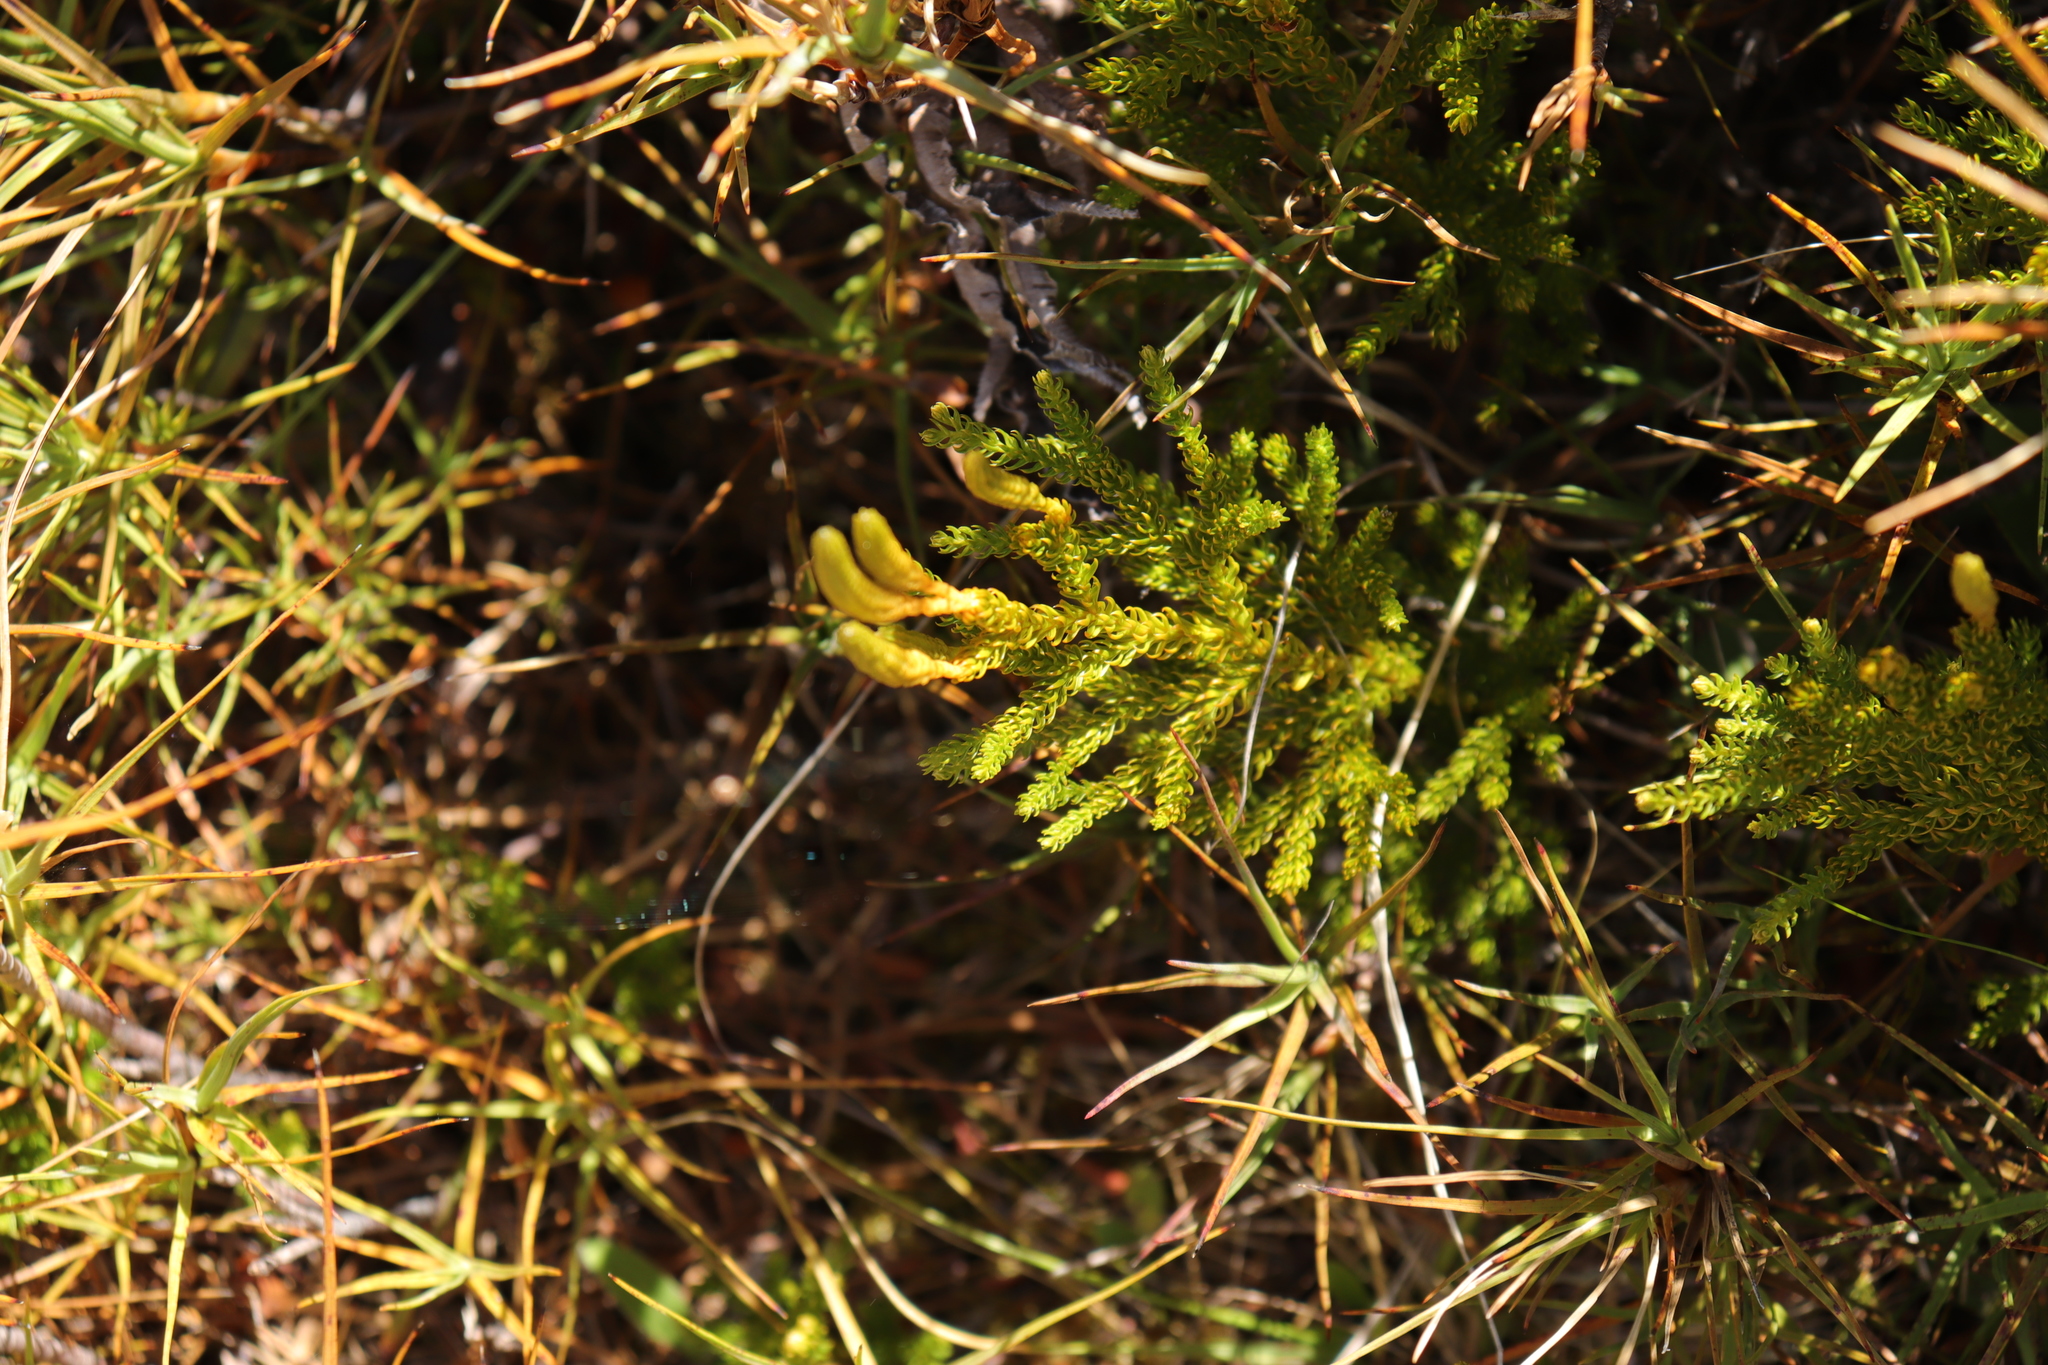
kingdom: Plantae
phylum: Tracheophyta
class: Lycopodiopsida
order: Lycopodiales
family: Lycopodiaceae
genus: Austrolycopodium
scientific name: Austrolycopodium fastigiatum
